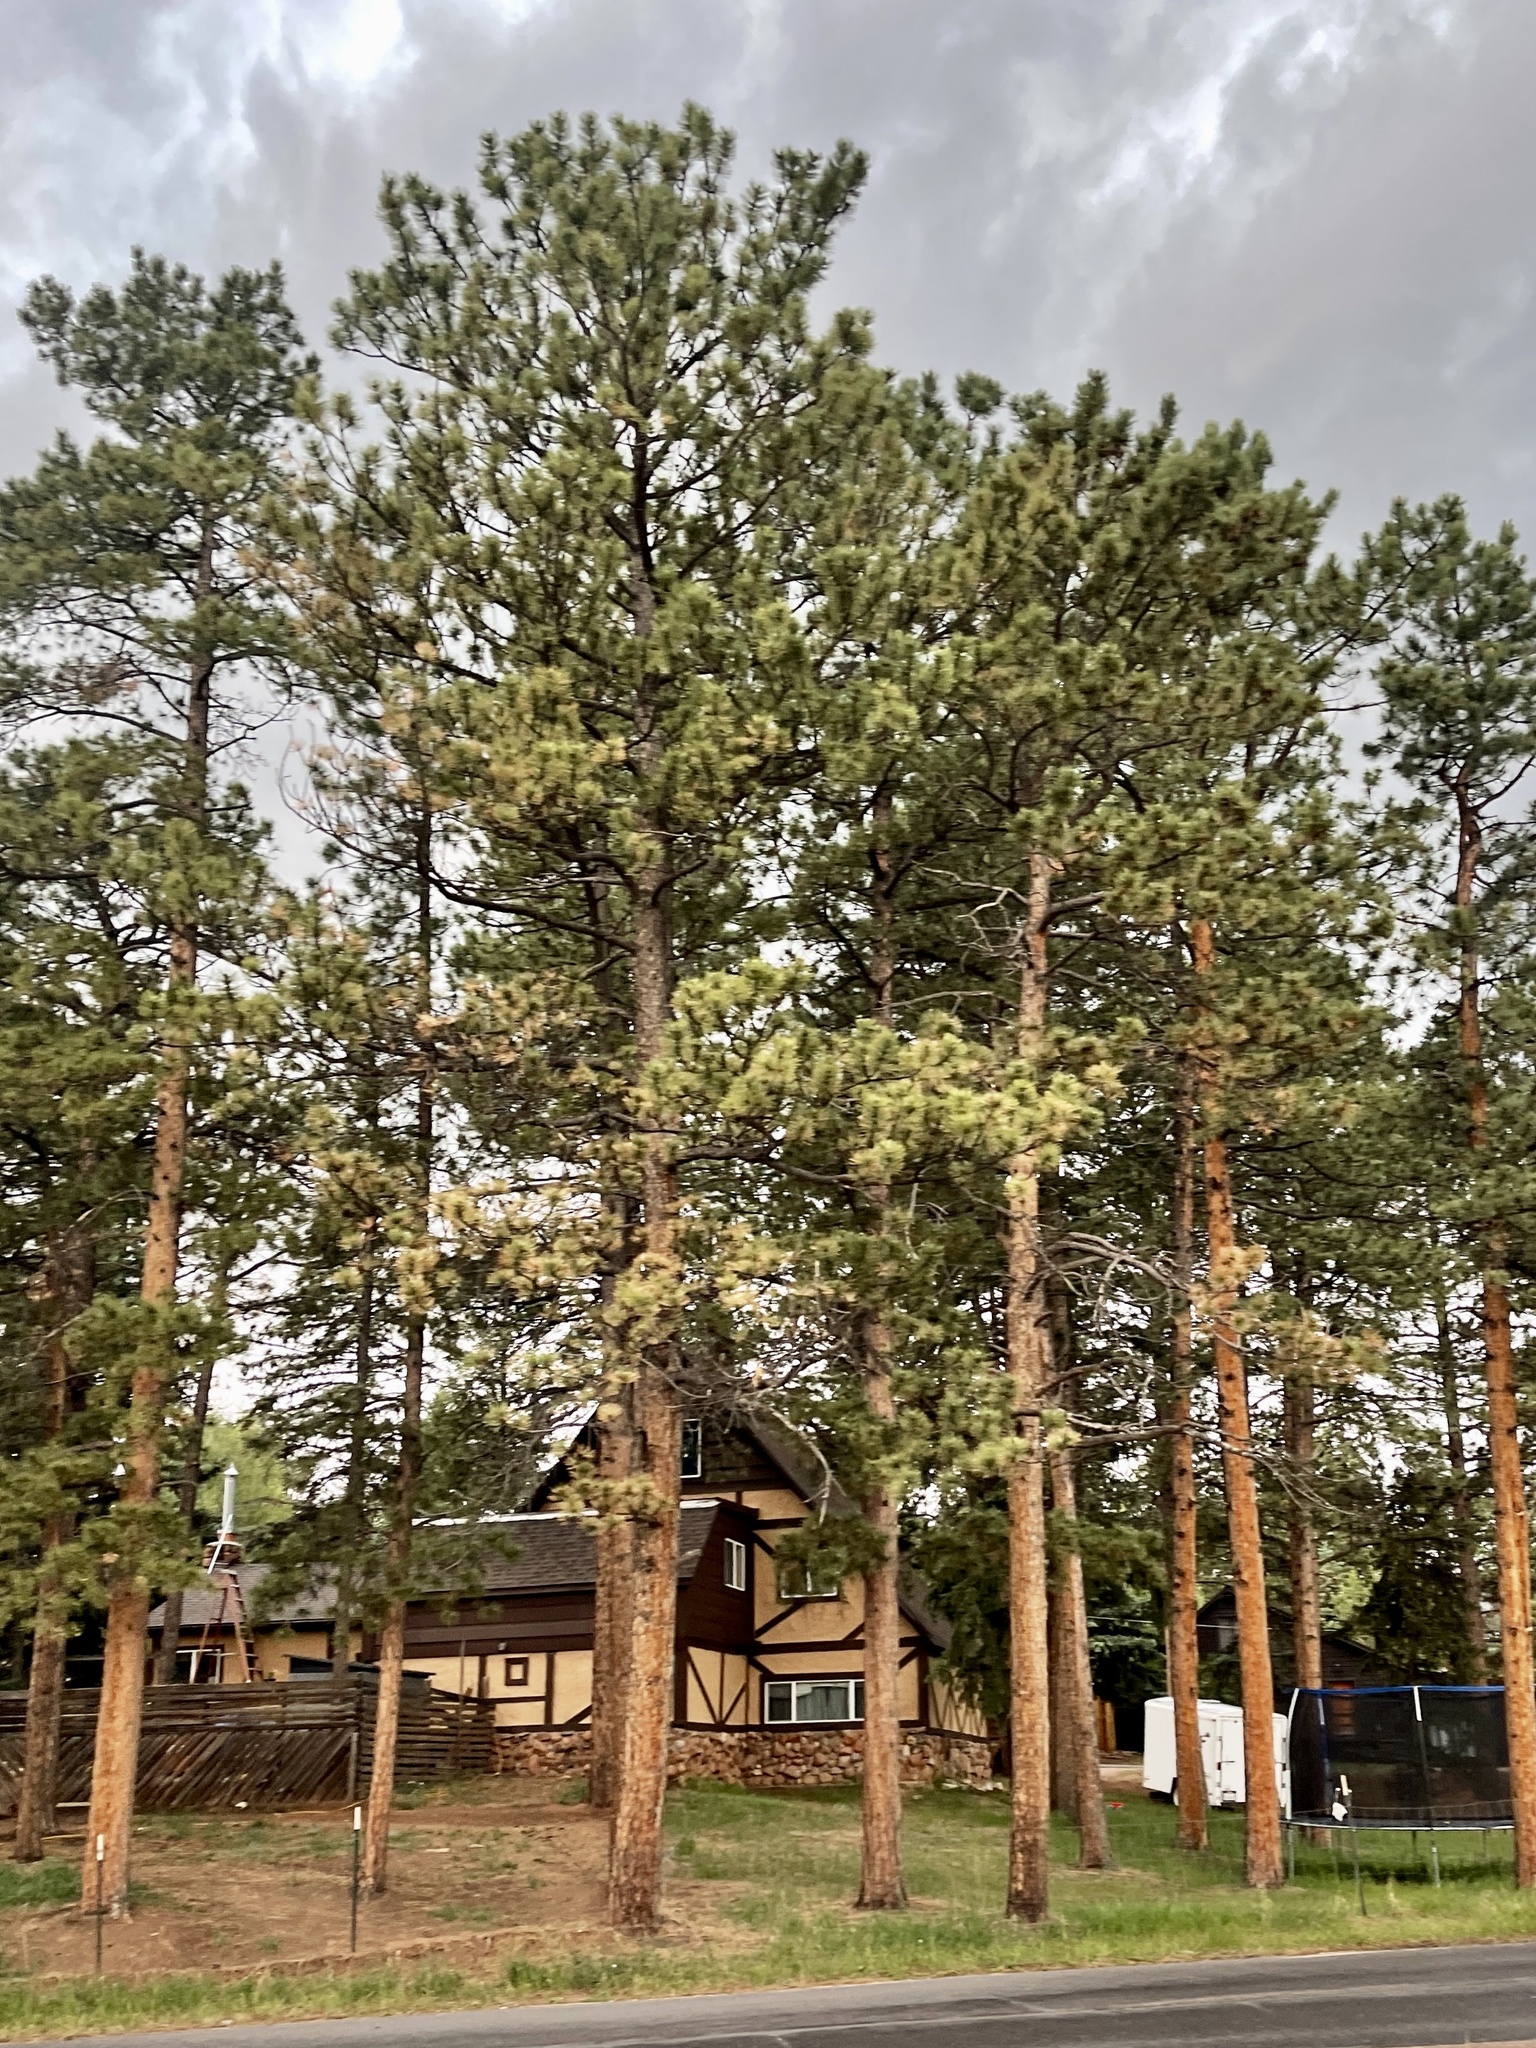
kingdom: Plantae
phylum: Tracheophyta
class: Pinopsida
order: Pinales
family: Pinaceae
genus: Pinus
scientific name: Pinus ponderosa
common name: Western yellow-pine
